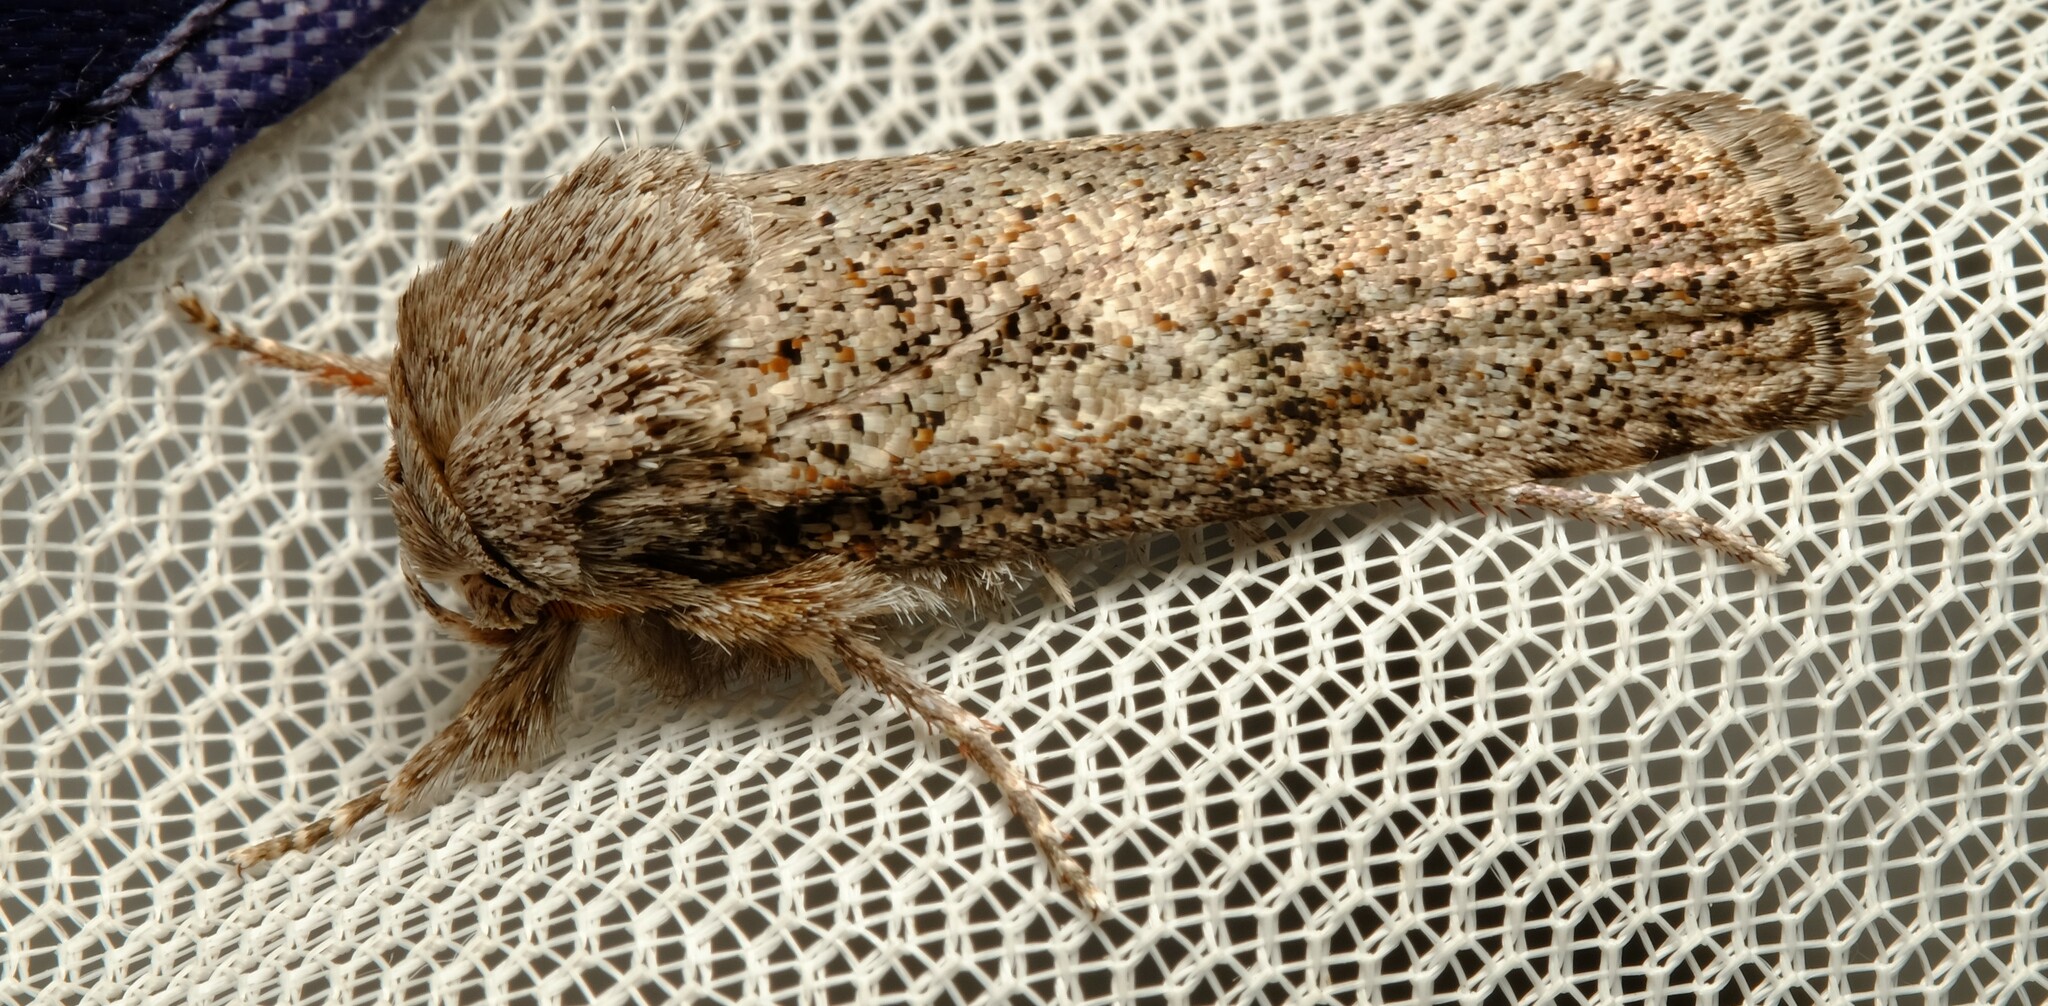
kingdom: Animalia
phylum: Arthropoda
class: Insecta
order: Lepidoptera
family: Xyloryctidae
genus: Cryptophasa
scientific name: Cryptophasa irrorata
